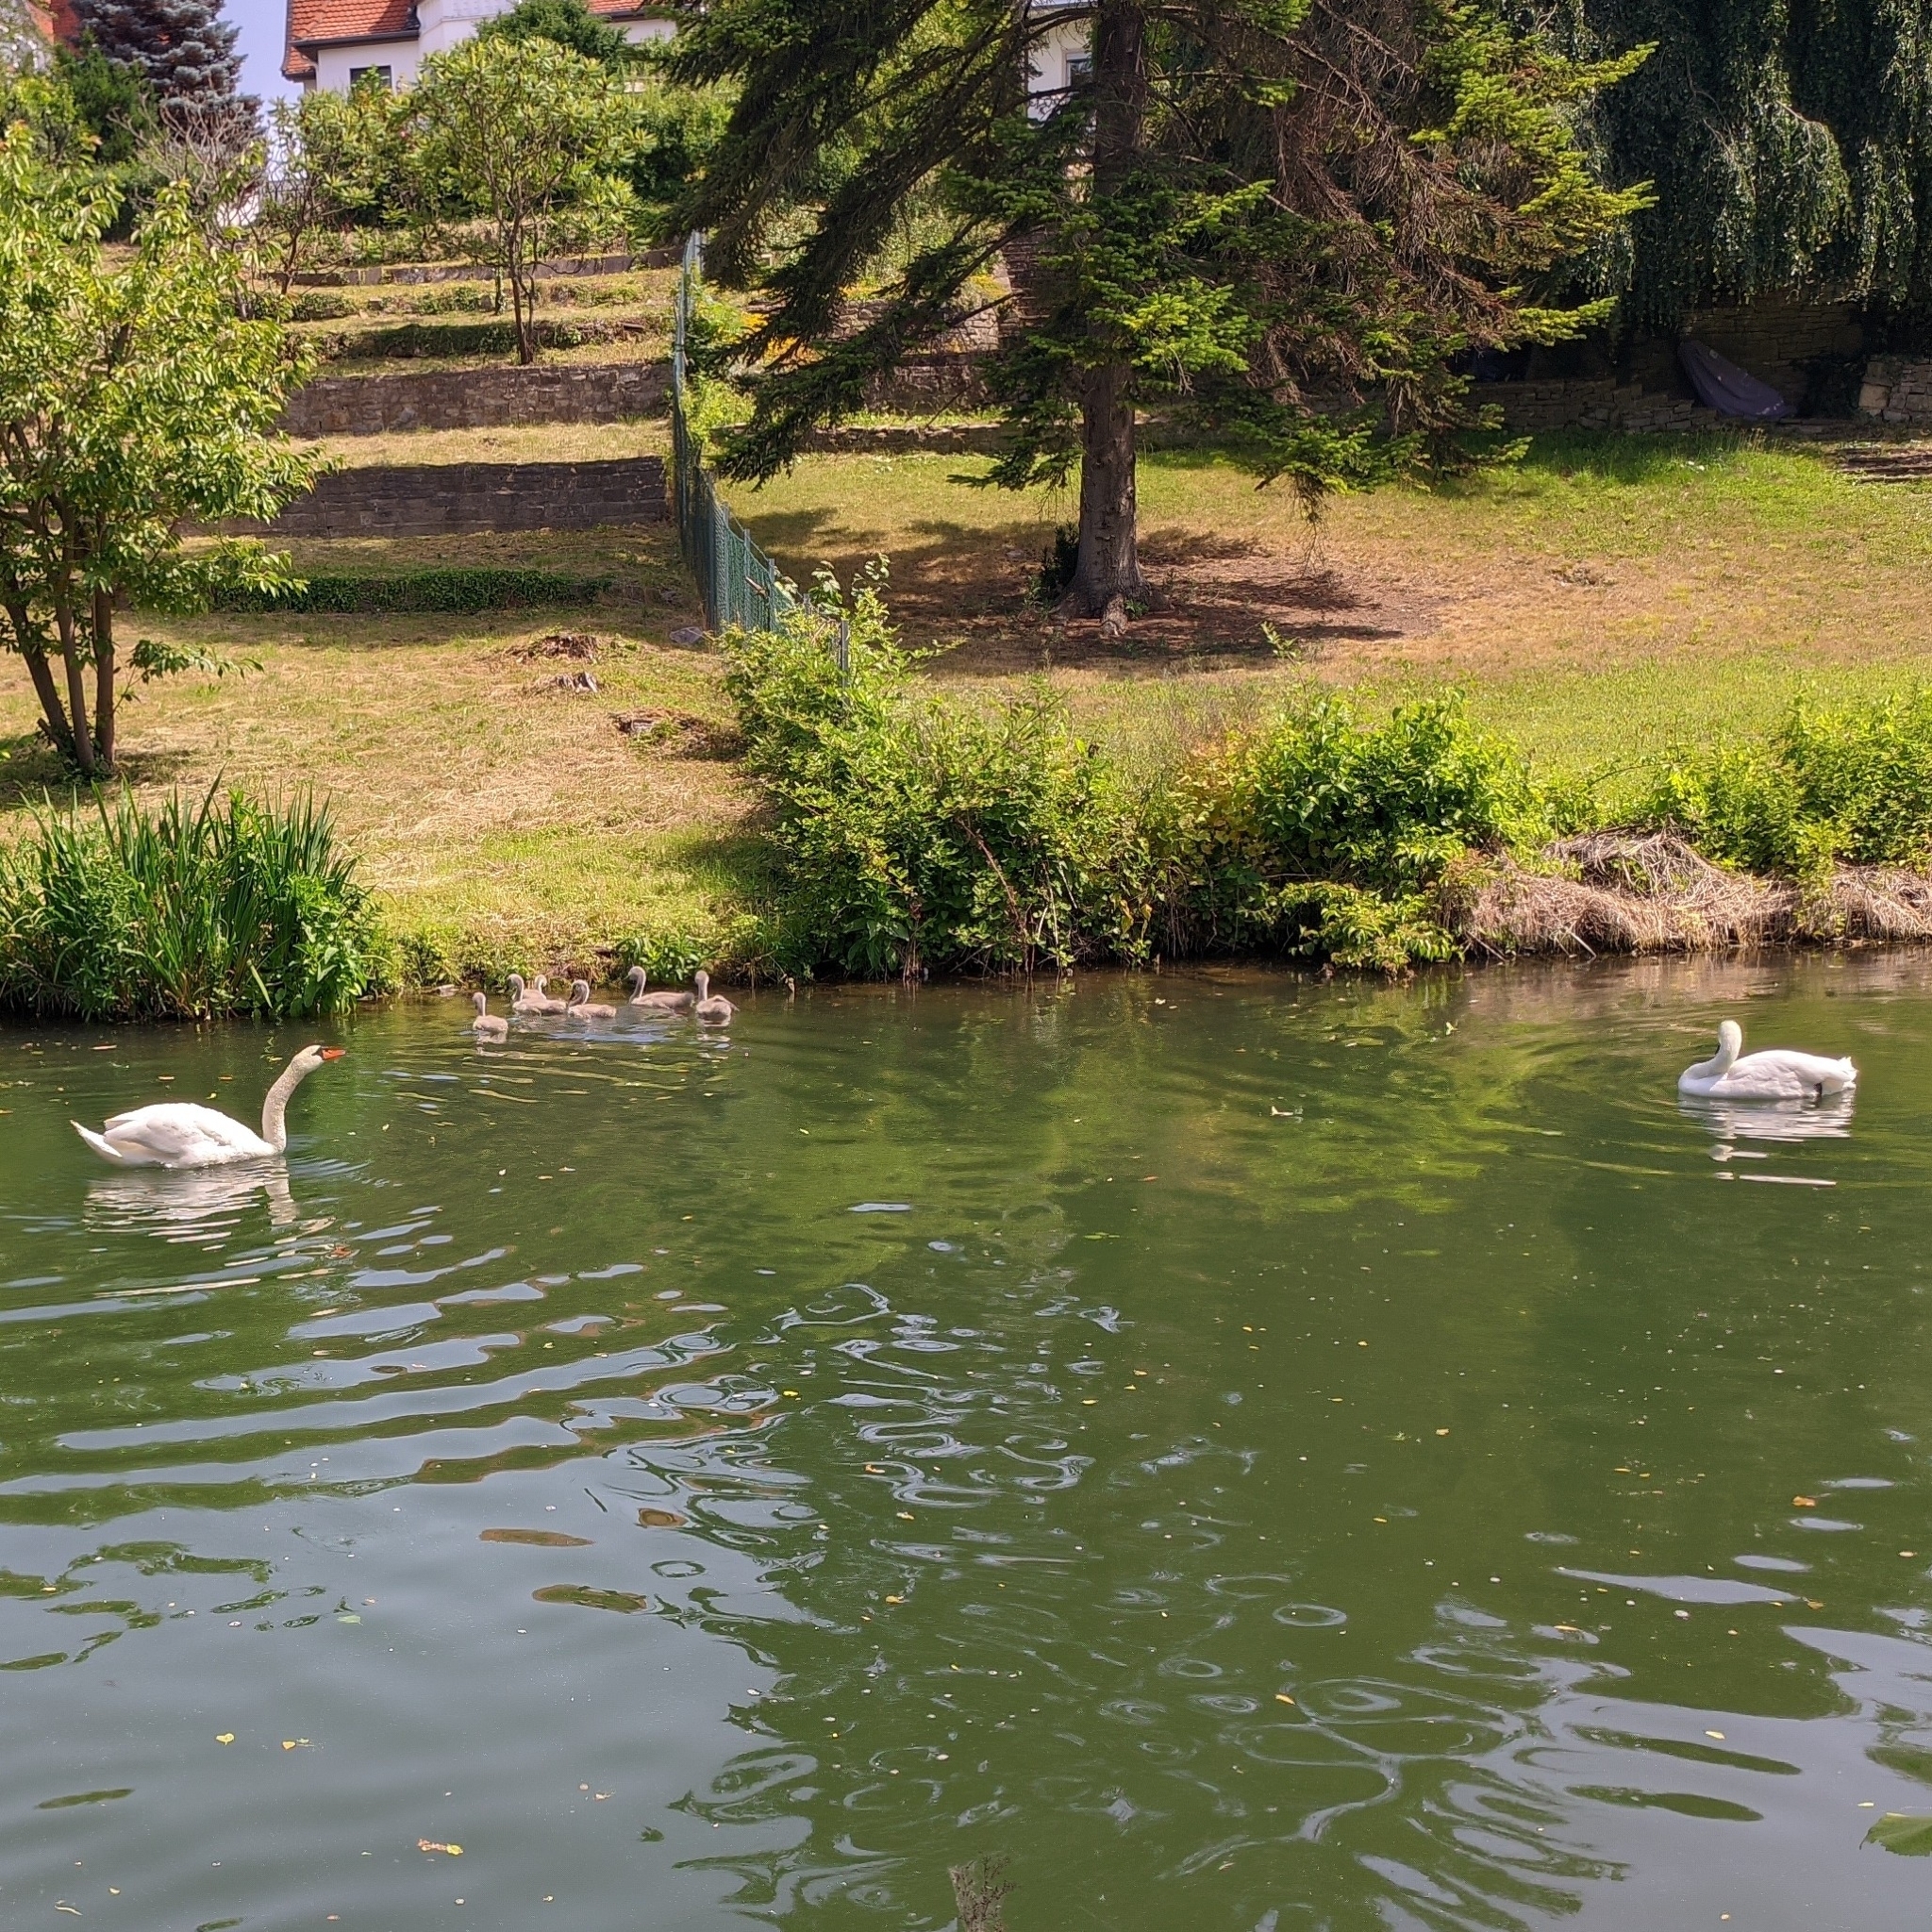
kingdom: Animalia
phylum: Chordata
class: Aves
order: Anseriformes
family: Anatidae
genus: Cygnus
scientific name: Cygnus olor
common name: Mute swan
